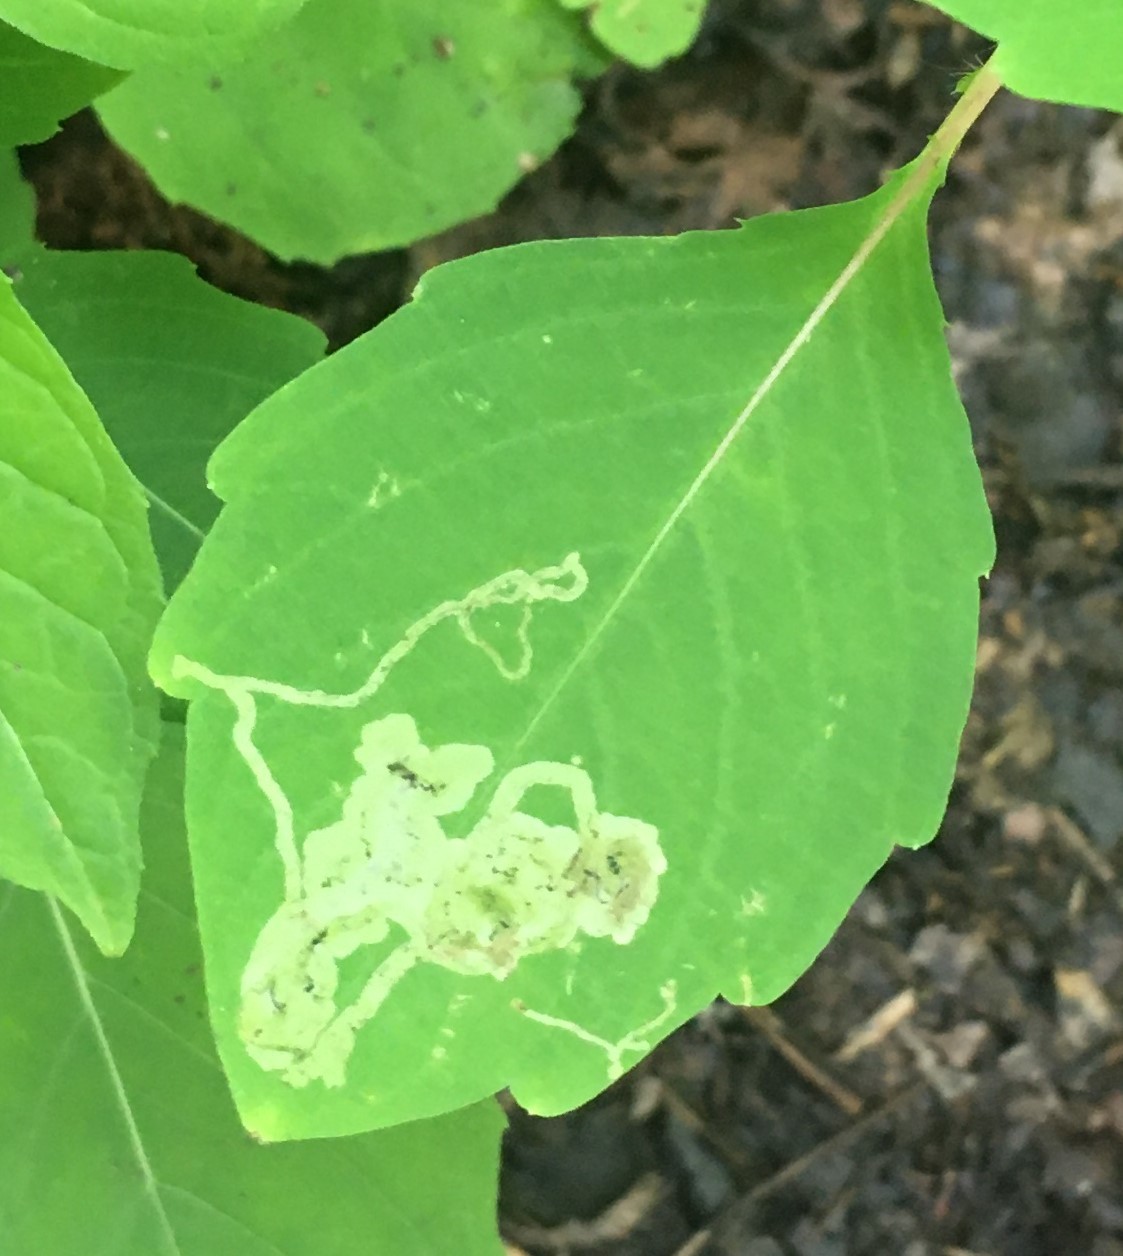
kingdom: Animalia
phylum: Arthropoda
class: Insecta
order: Diptera
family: Agromyzidae
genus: Phytoliriomyza
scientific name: Phytoliriomyza melampyga
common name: Jewelweed leaf-miner fly
